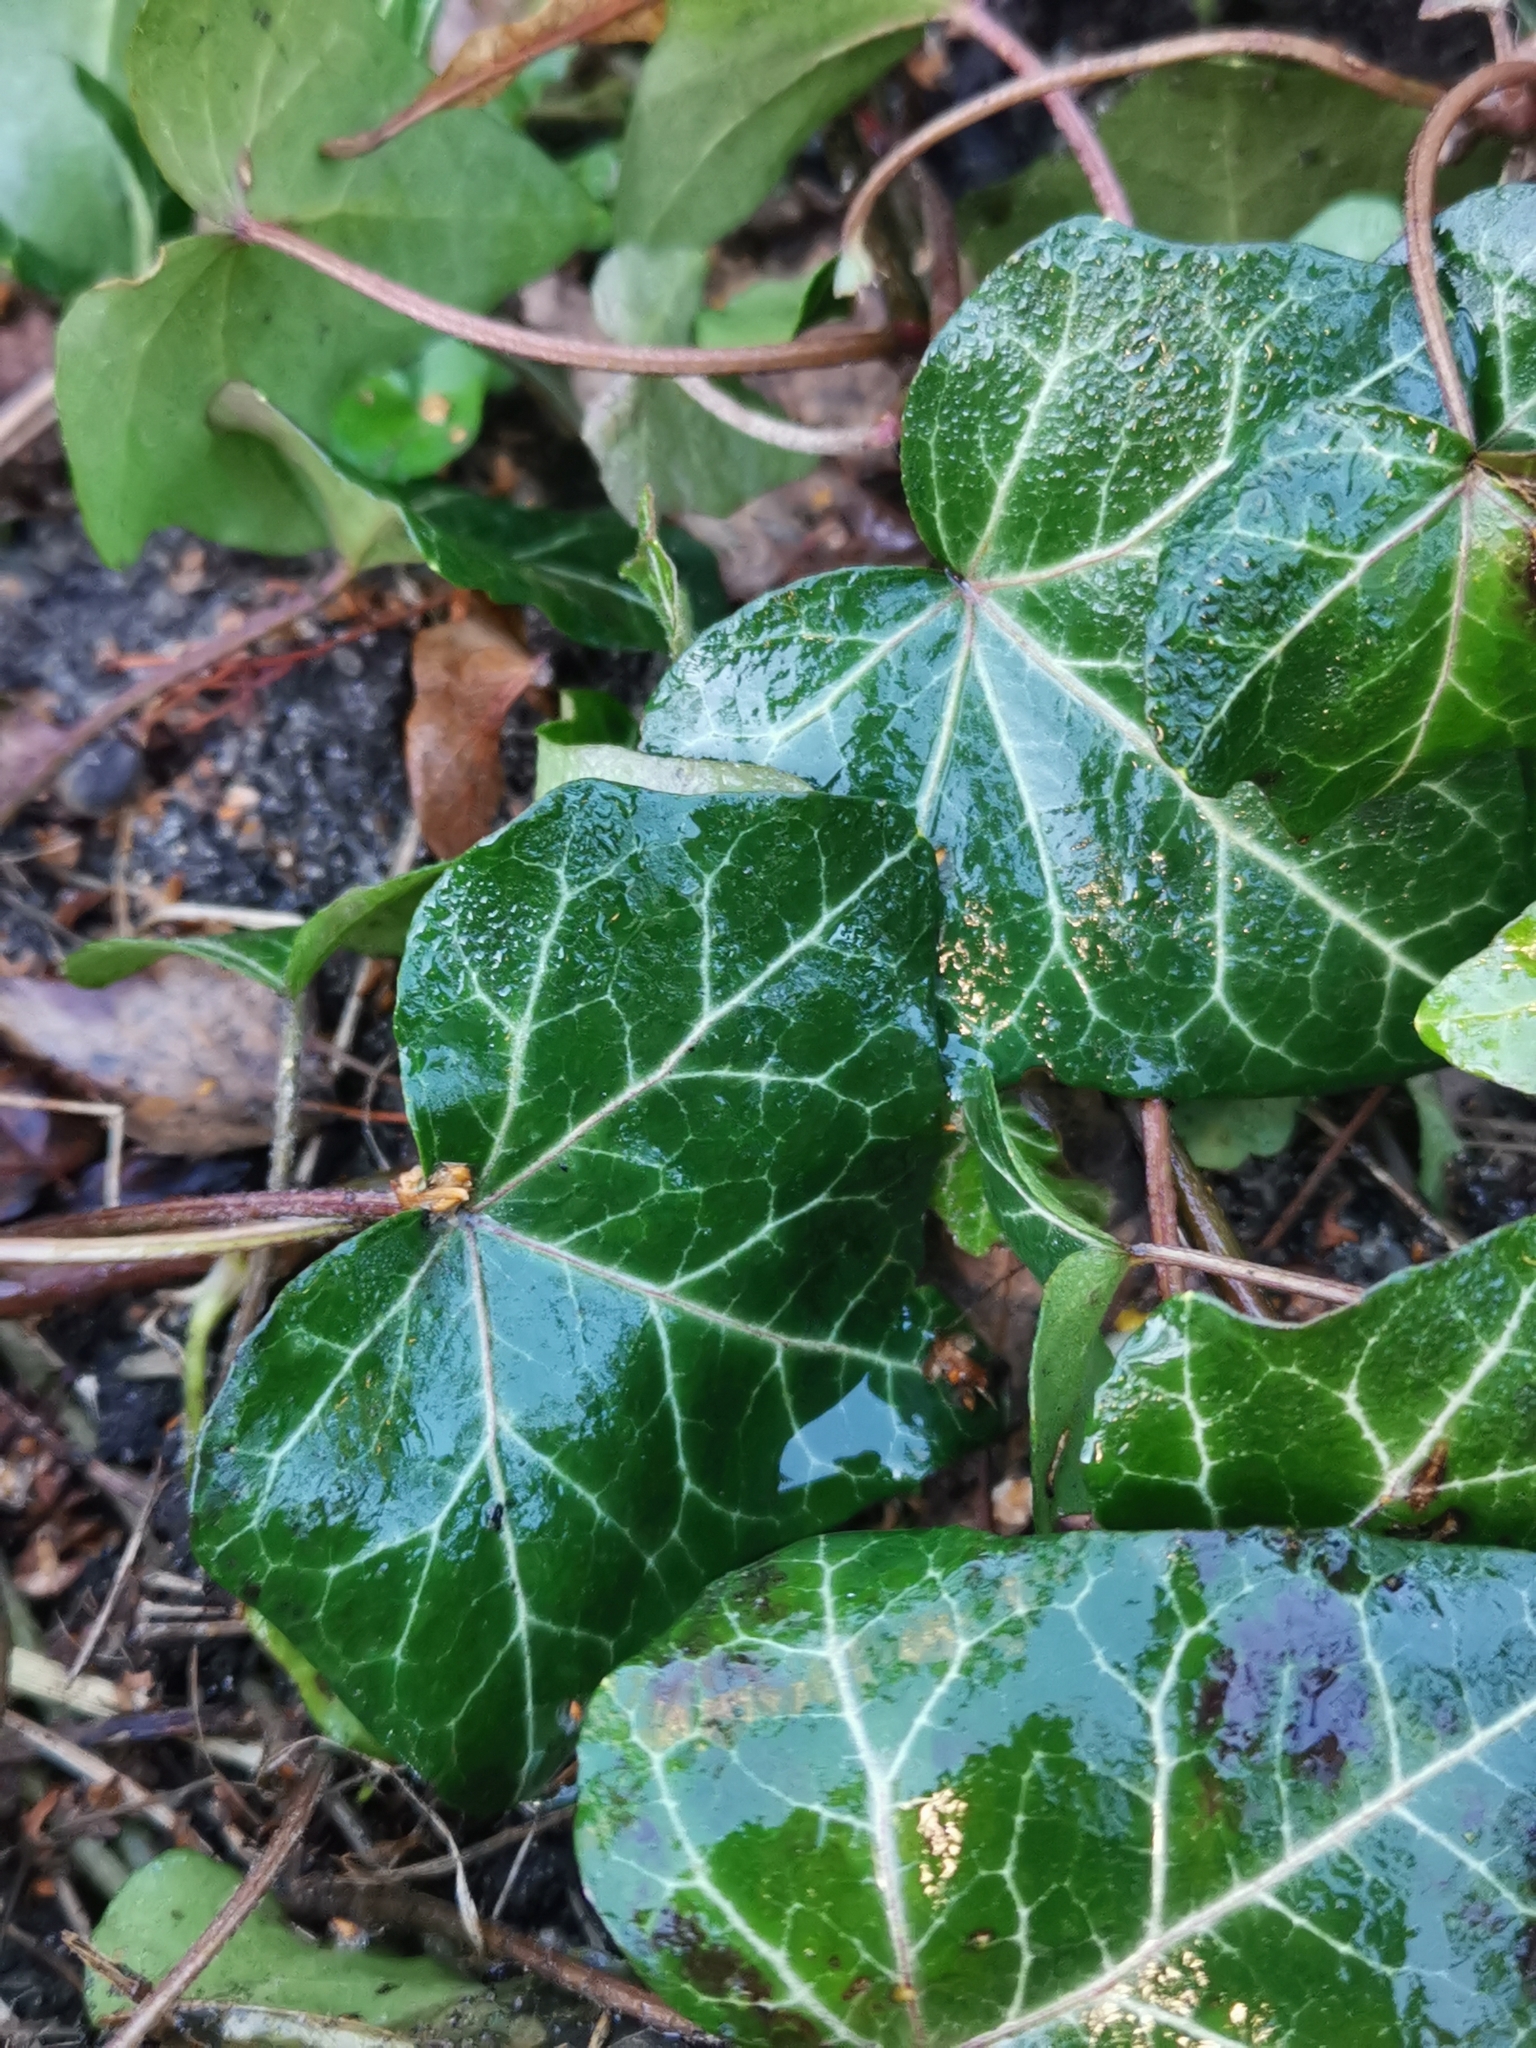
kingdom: Plantae
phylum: Tracheophyta
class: Magnoliopsida
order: Apiales
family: Araliaceae
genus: Hedera
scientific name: Hedera helix
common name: Ivy
